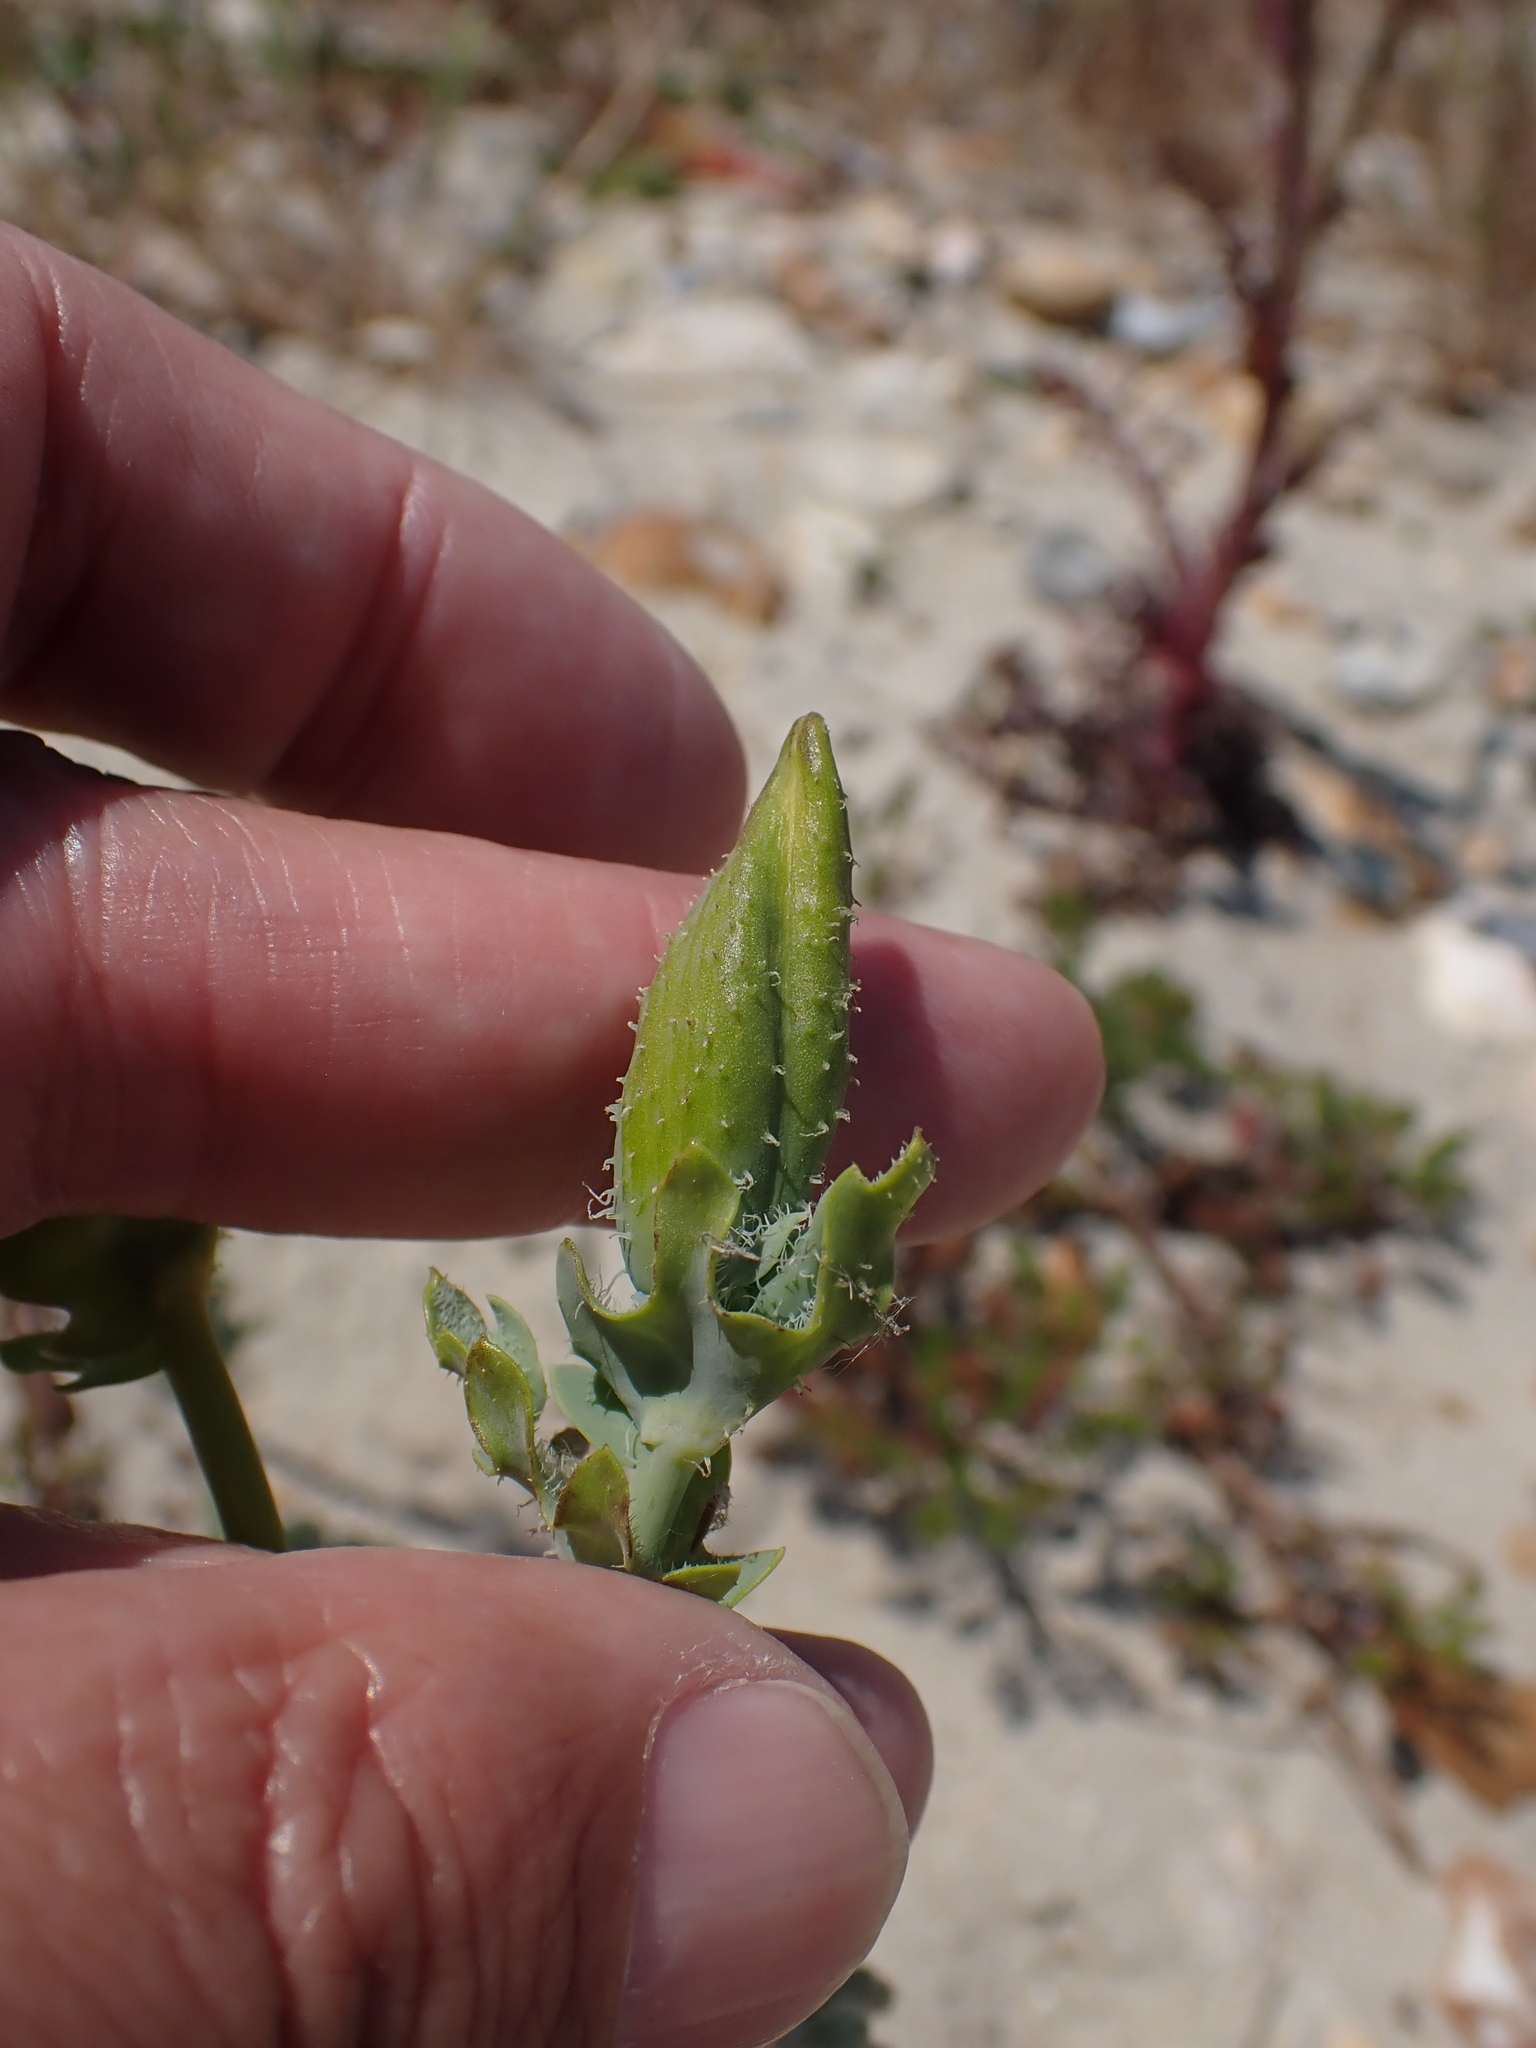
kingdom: Plantae
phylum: Tracheophyta
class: Magnoliopsida
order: Ranunculales
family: Papaveraceae
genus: Glaucium
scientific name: Glaucium flavum
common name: Yellow horned-poppy
